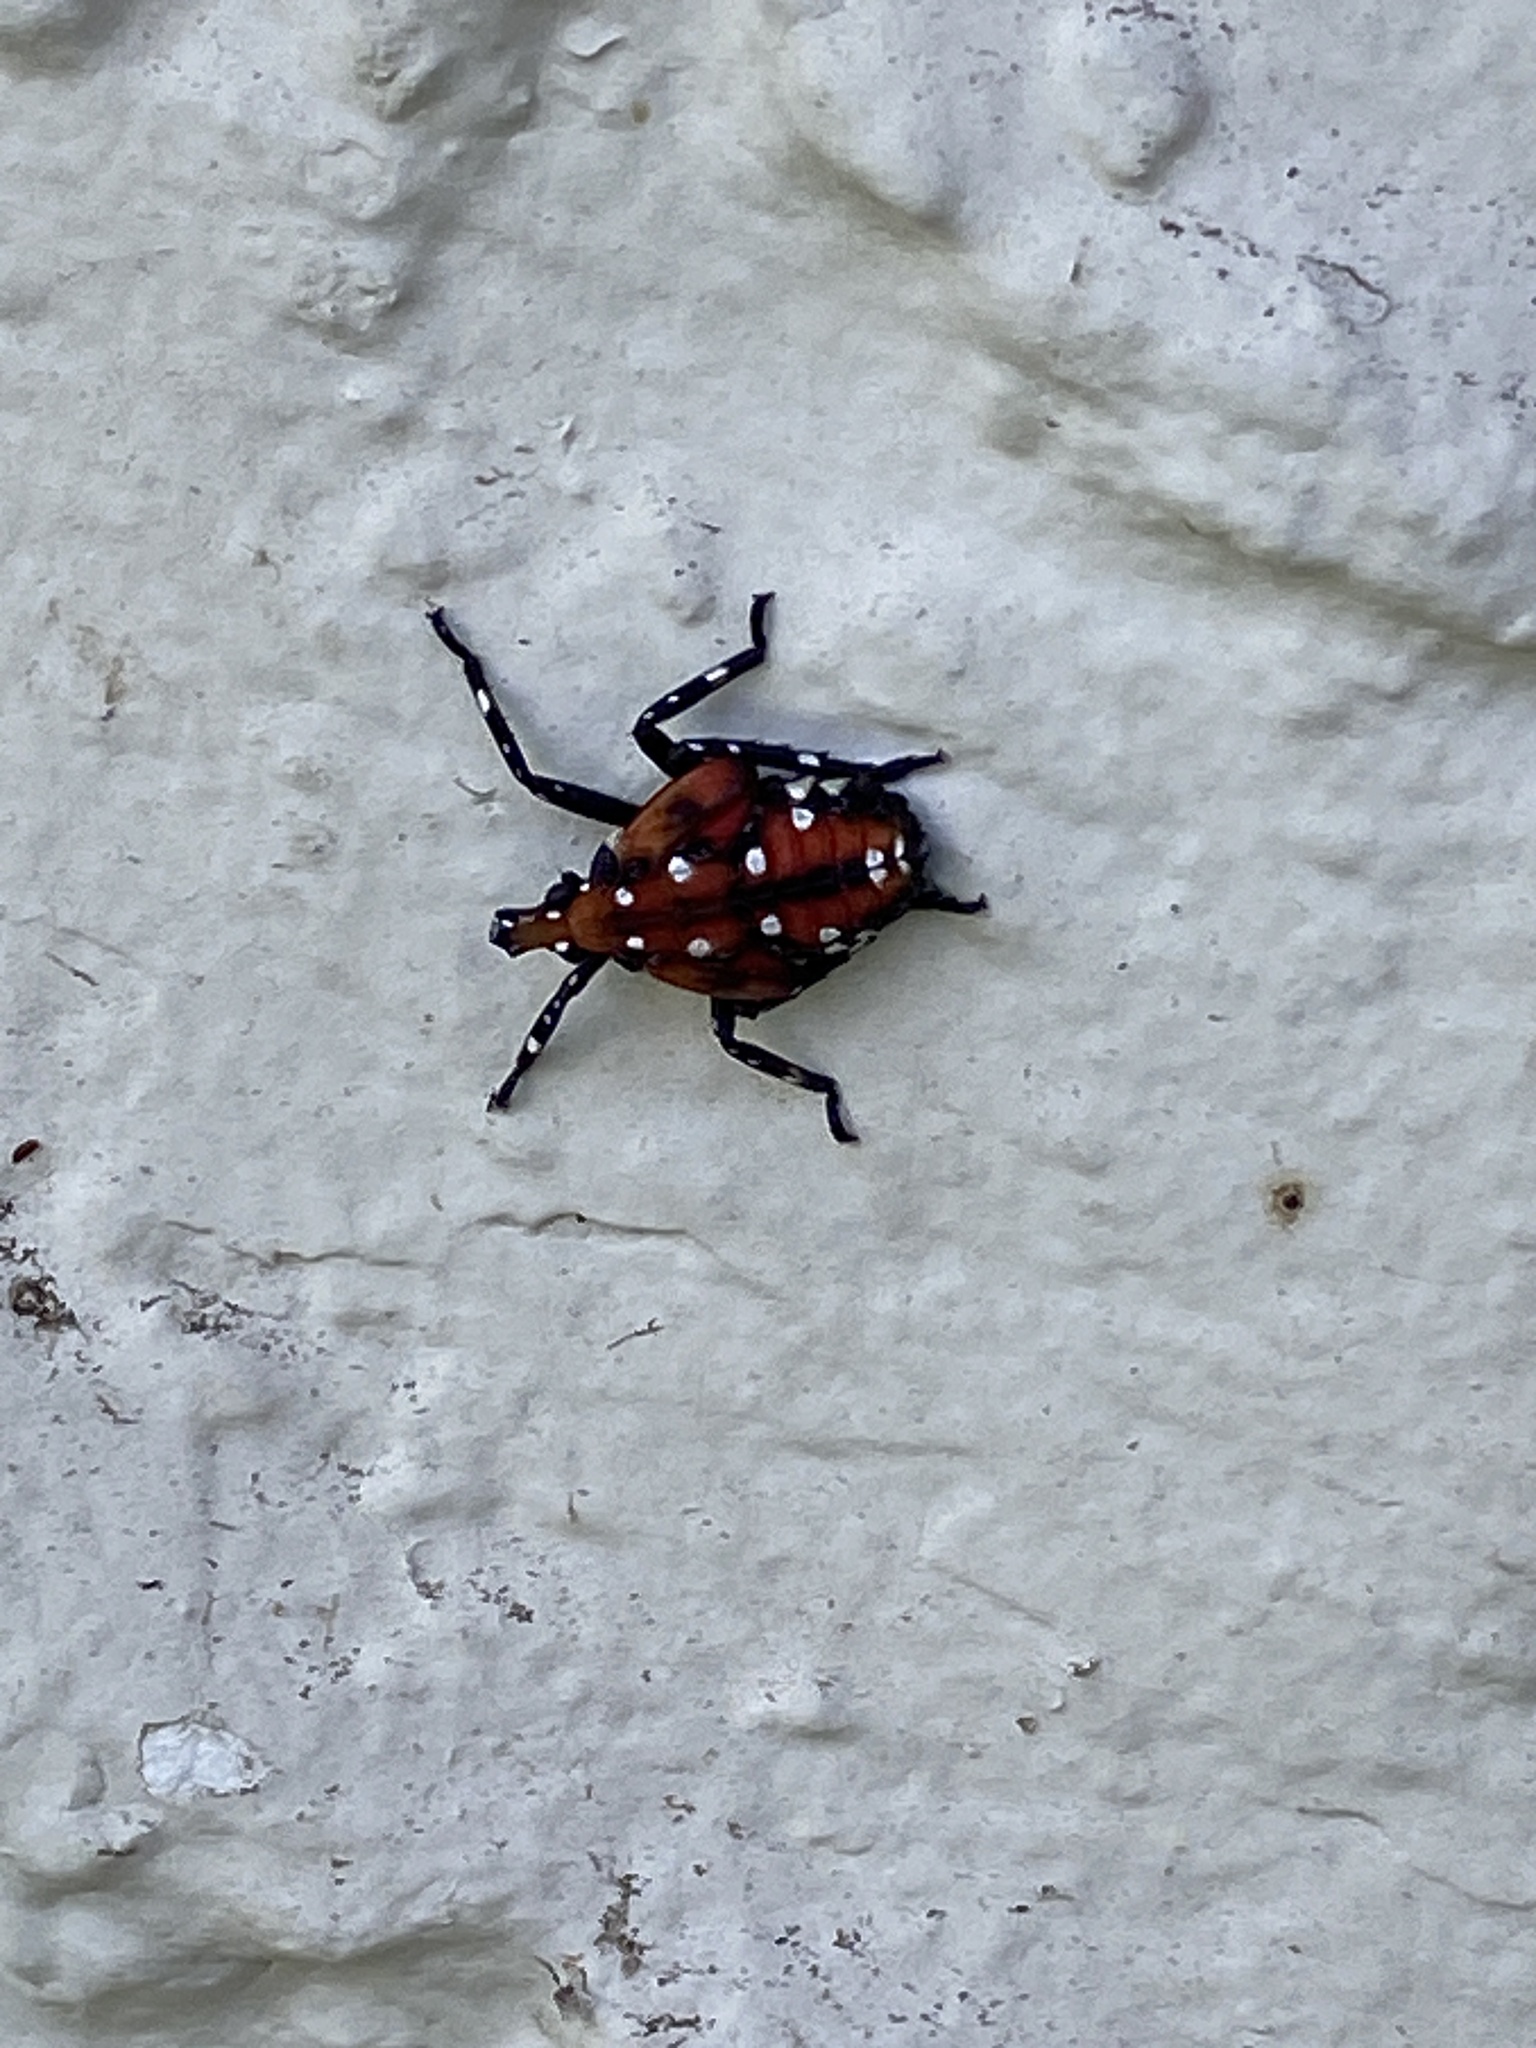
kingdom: Animalia
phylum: Arthropoda
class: Insecta
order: Hemiptera
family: Fulgoridae
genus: Lycorma
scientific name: Lycorma delicatula
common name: Spotted lanternfly
